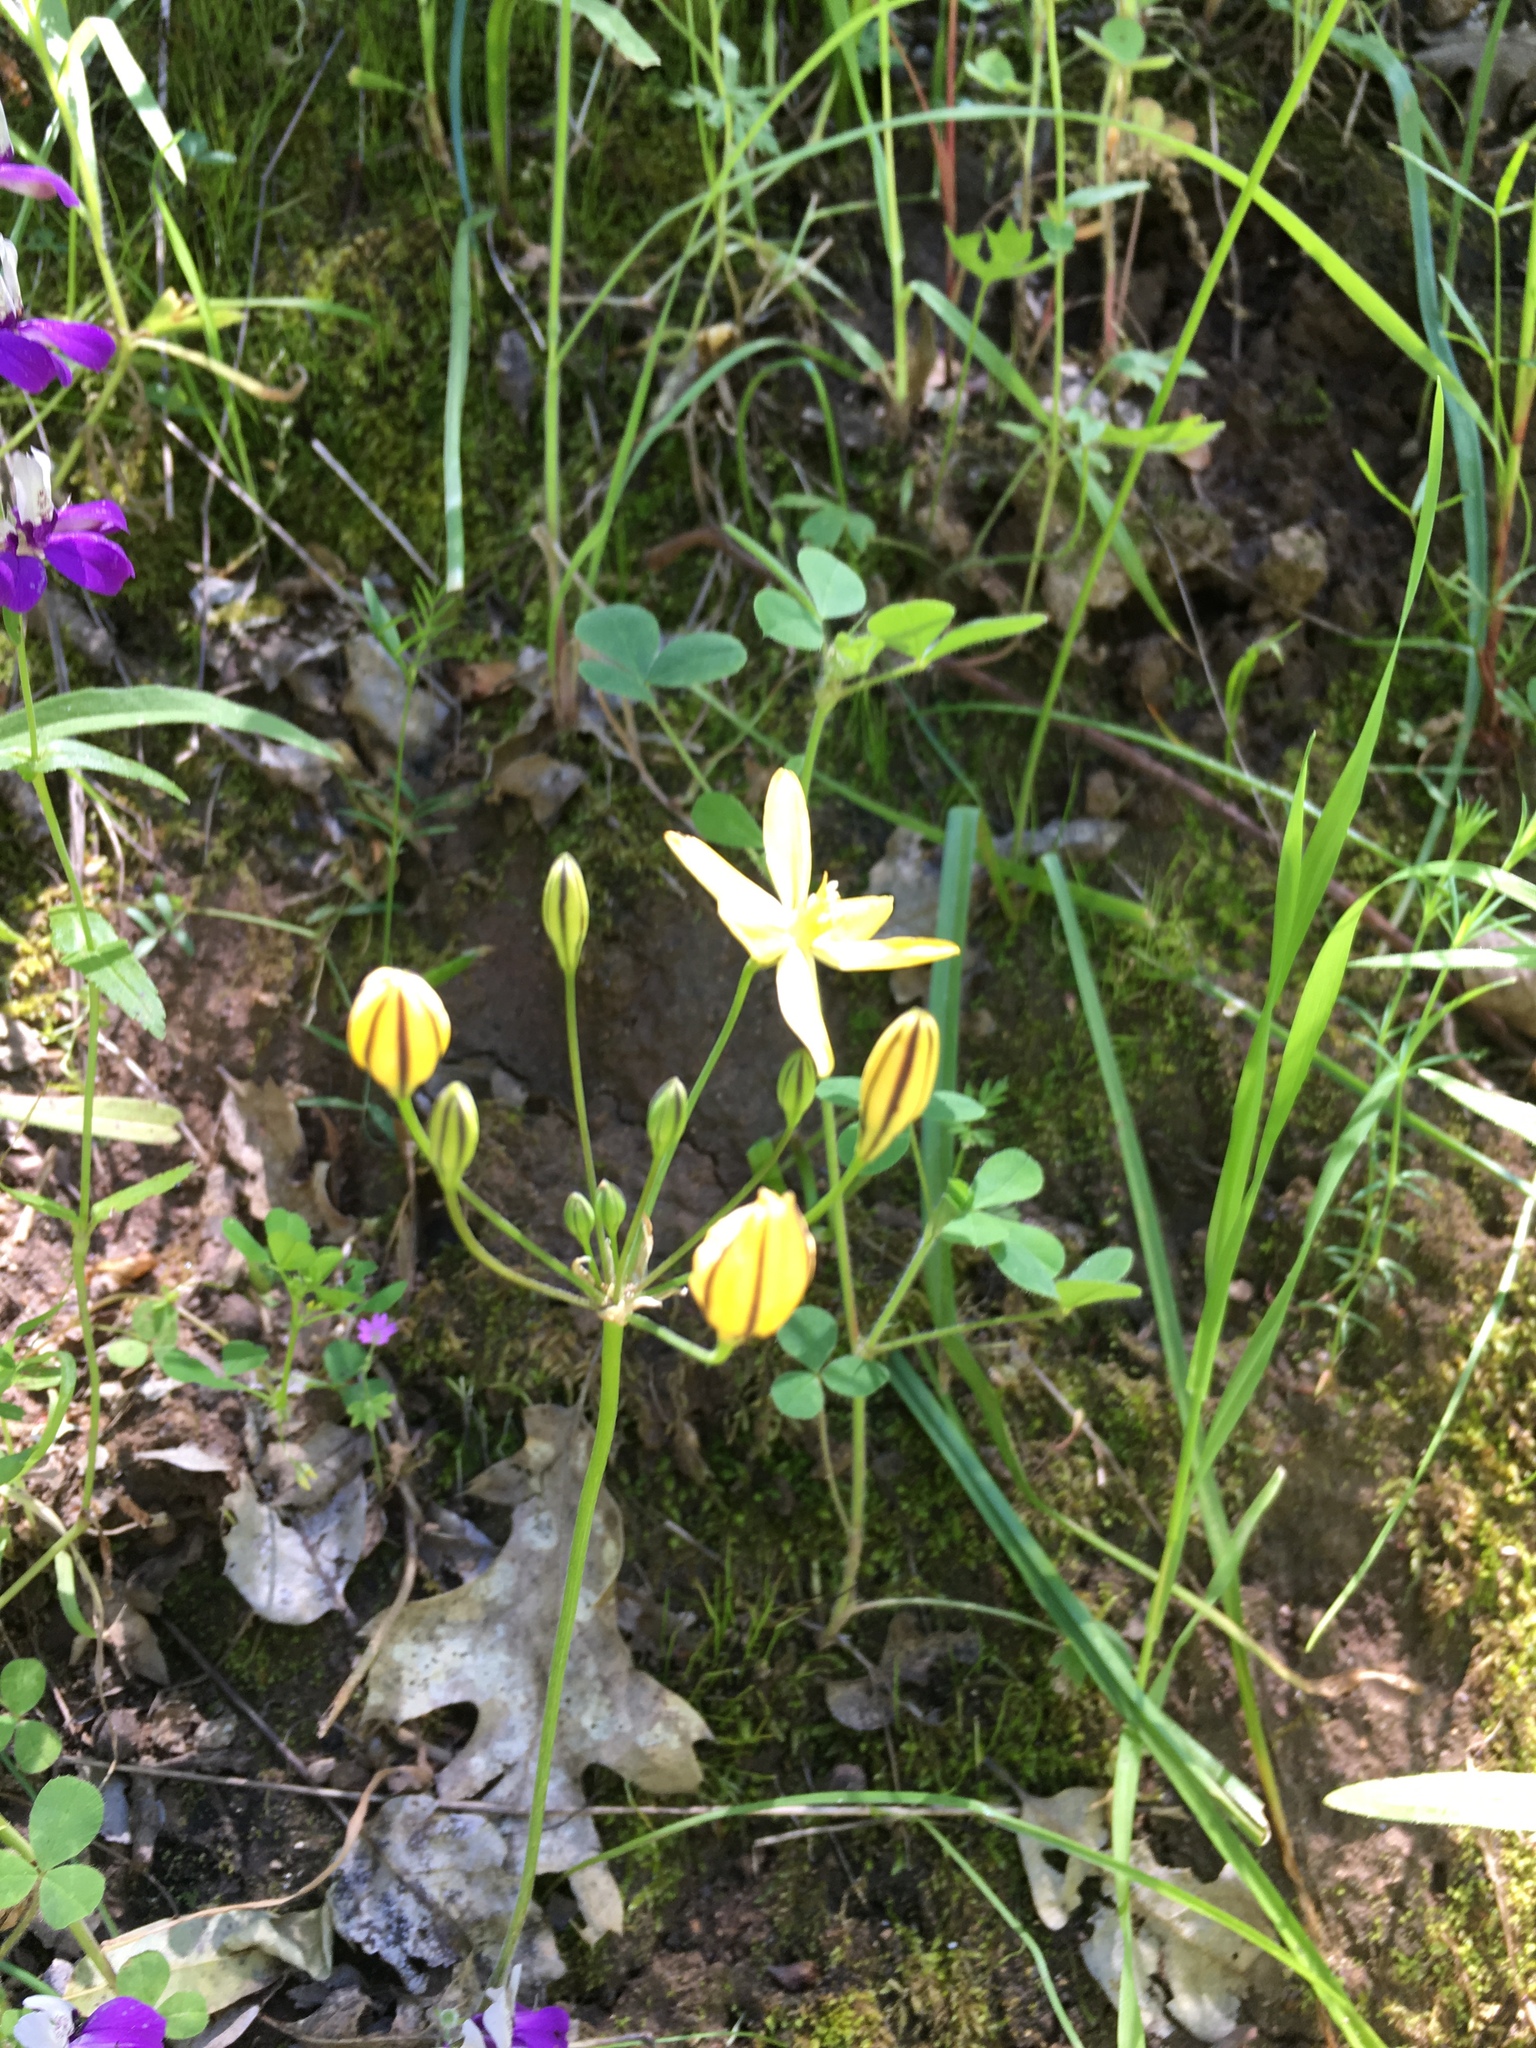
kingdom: Plantae
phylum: Tracheophyta
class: Liliopsida
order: Asparagales
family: Asparagaceae
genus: Triteleia
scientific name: Triteleia ixioides
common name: Yellow-brodiaea
